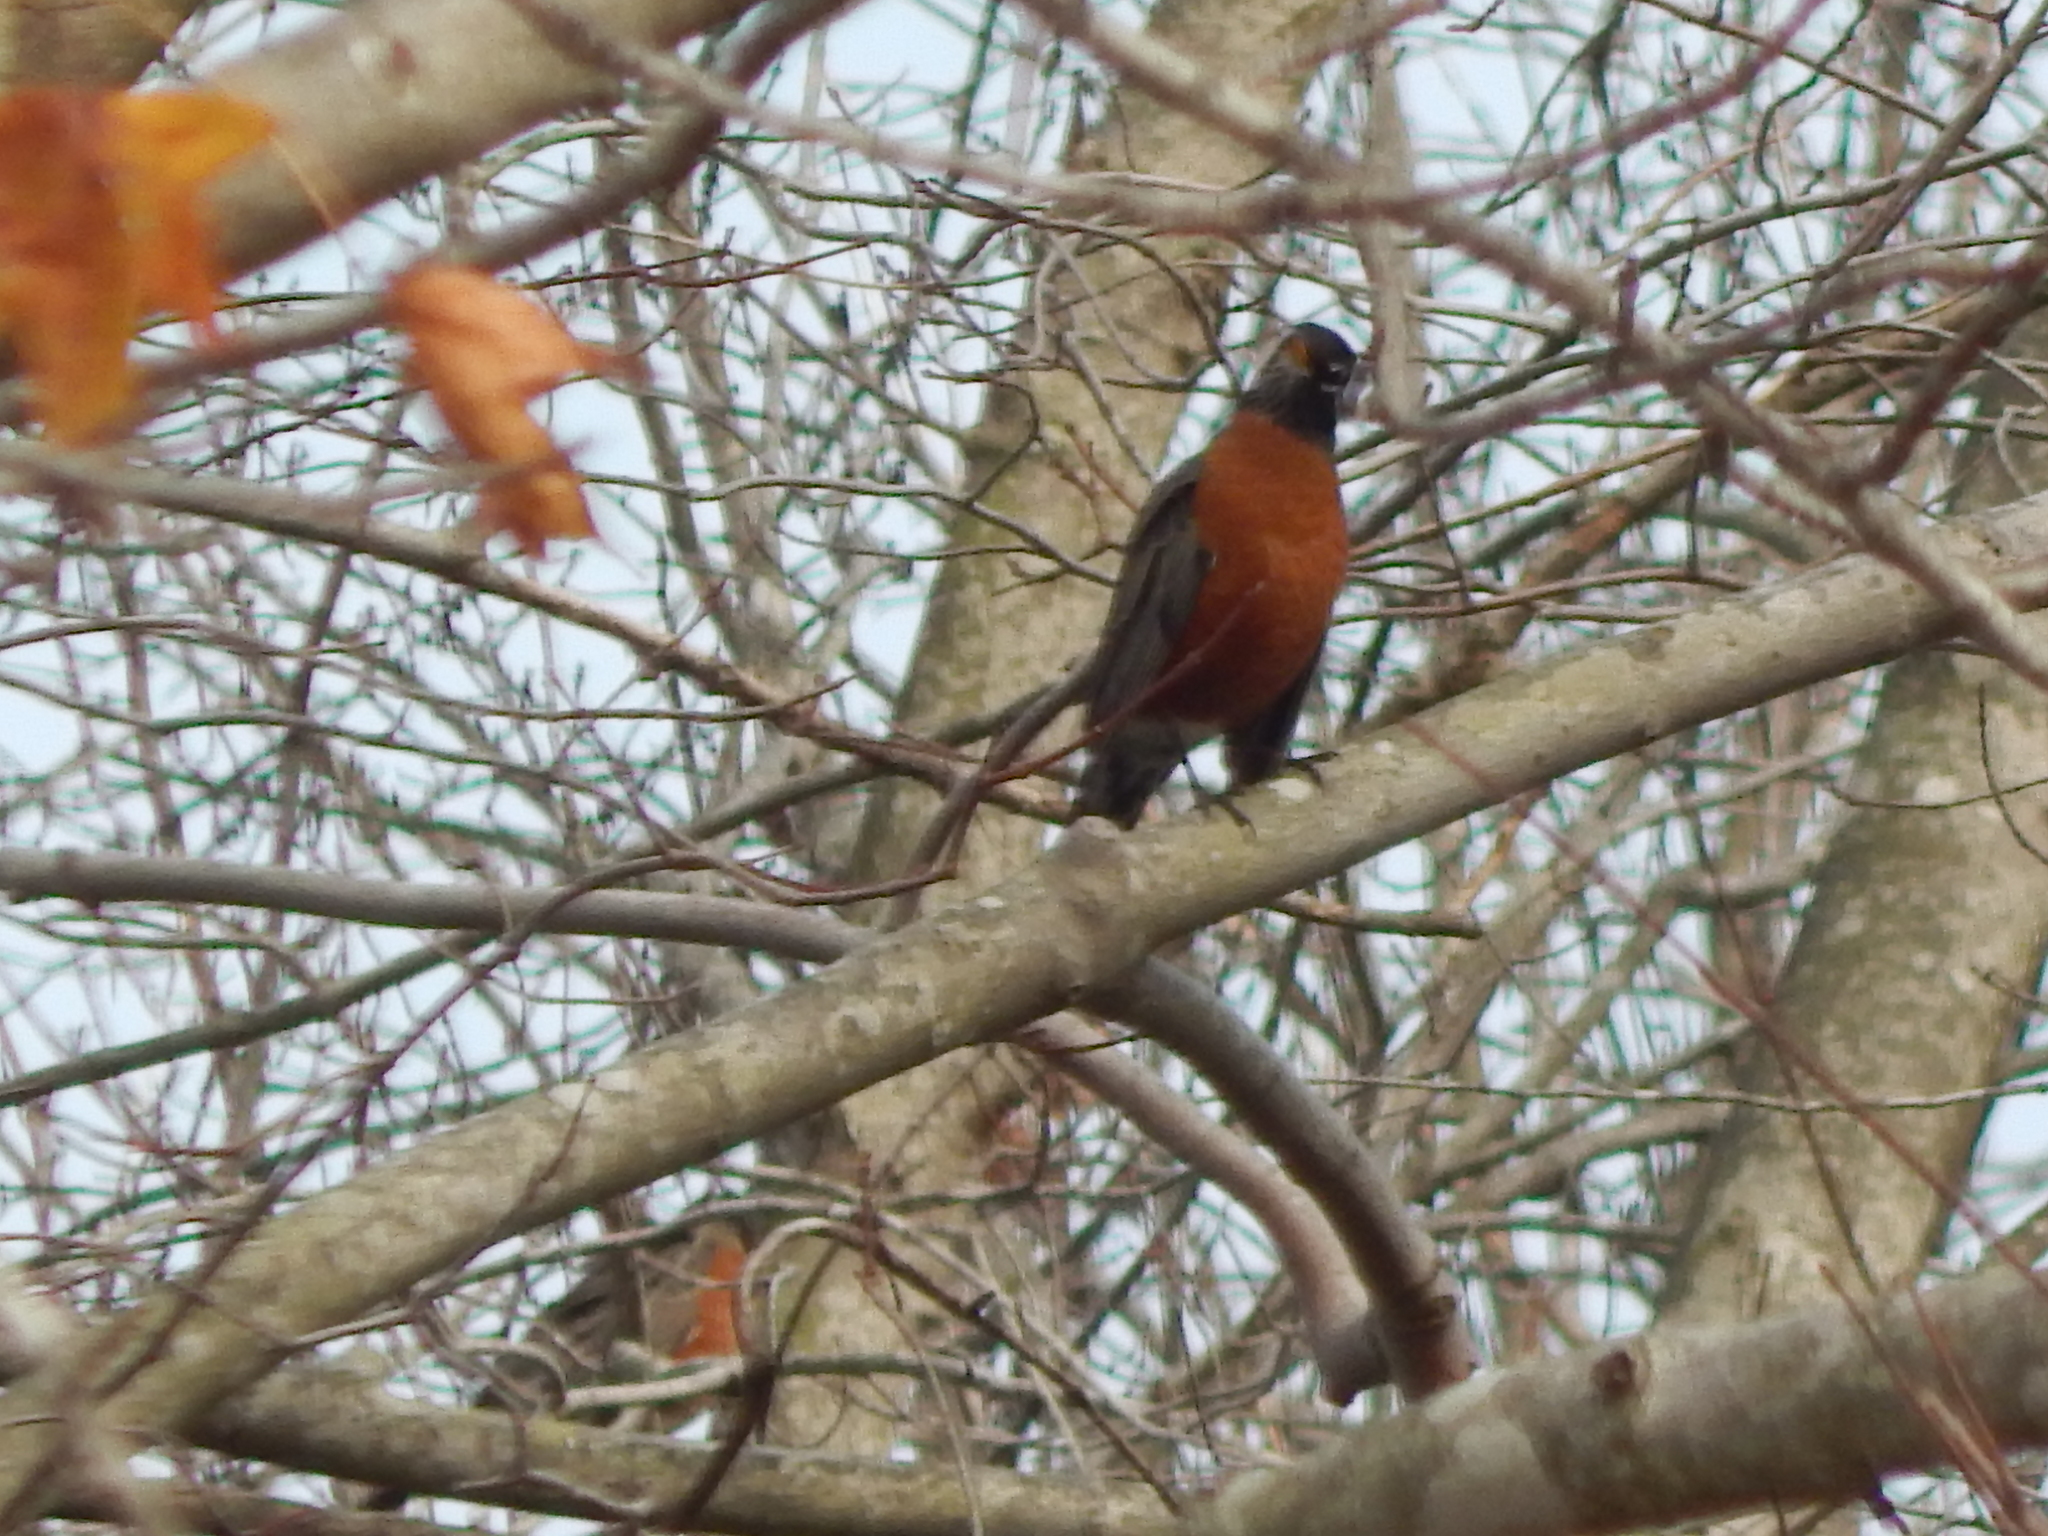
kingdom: Animalia
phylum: Chordata
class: Aves
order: Passeriformes
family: Turdidae
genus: Turdus
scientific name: Turdus migratorius
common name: American robin
